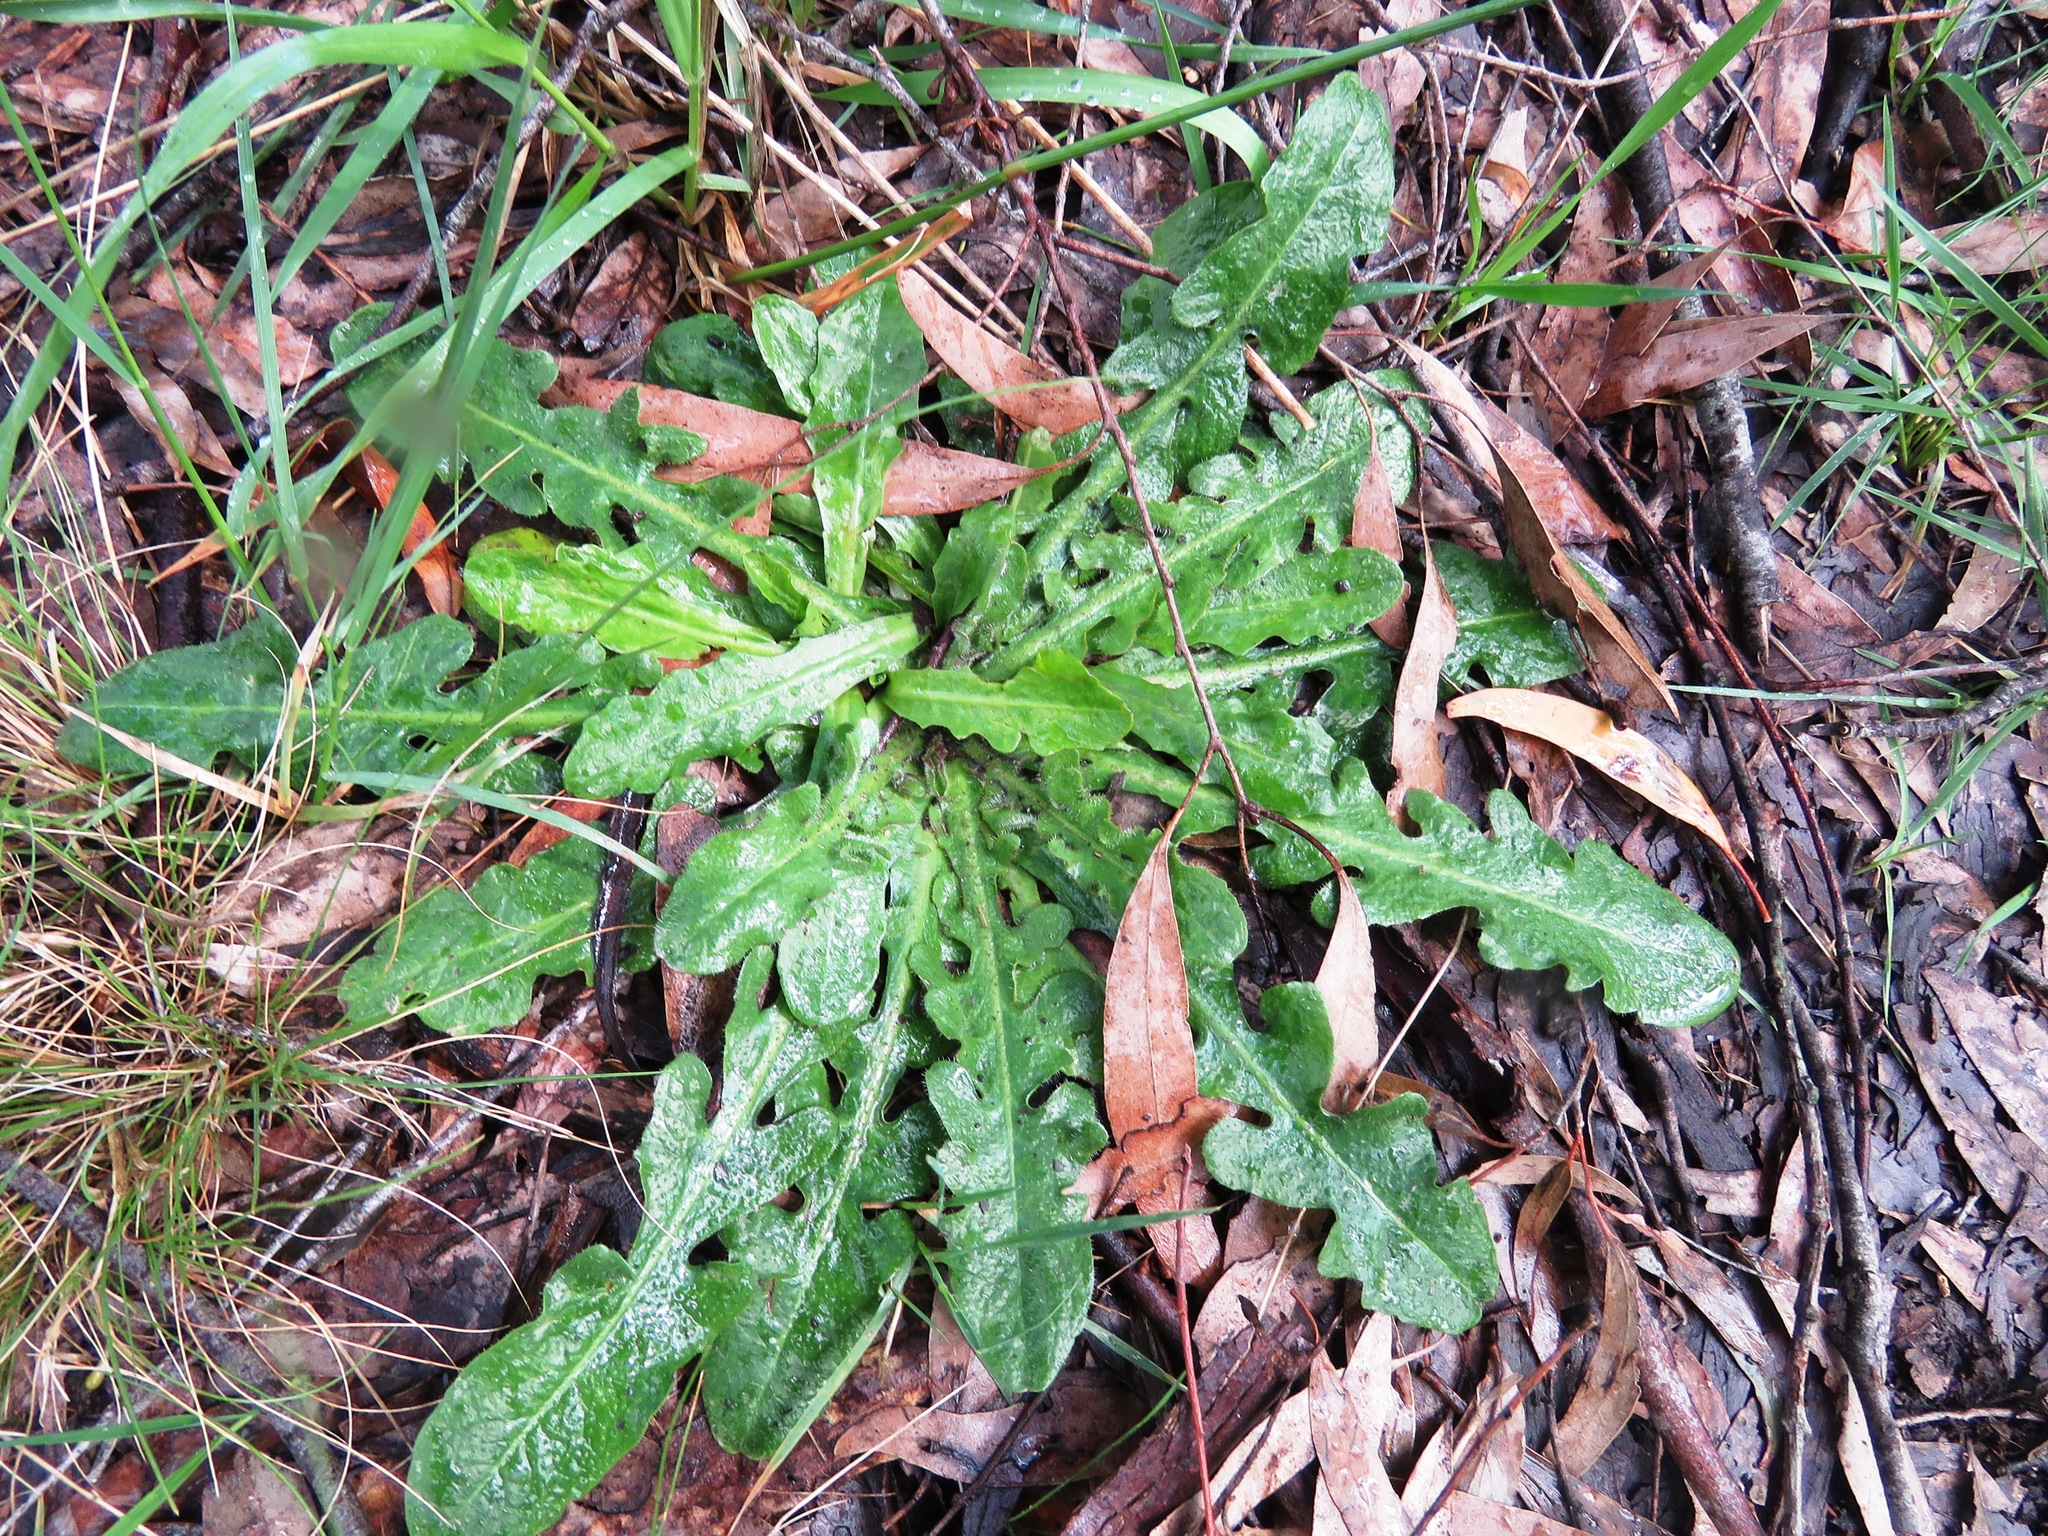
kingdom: Plantae
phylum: Tracheophyta
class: Magnoliopsida
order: Asterales
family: Asteraceae
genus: Hypochaeris
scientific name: Hypochaeris radicata
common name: Flatweed
